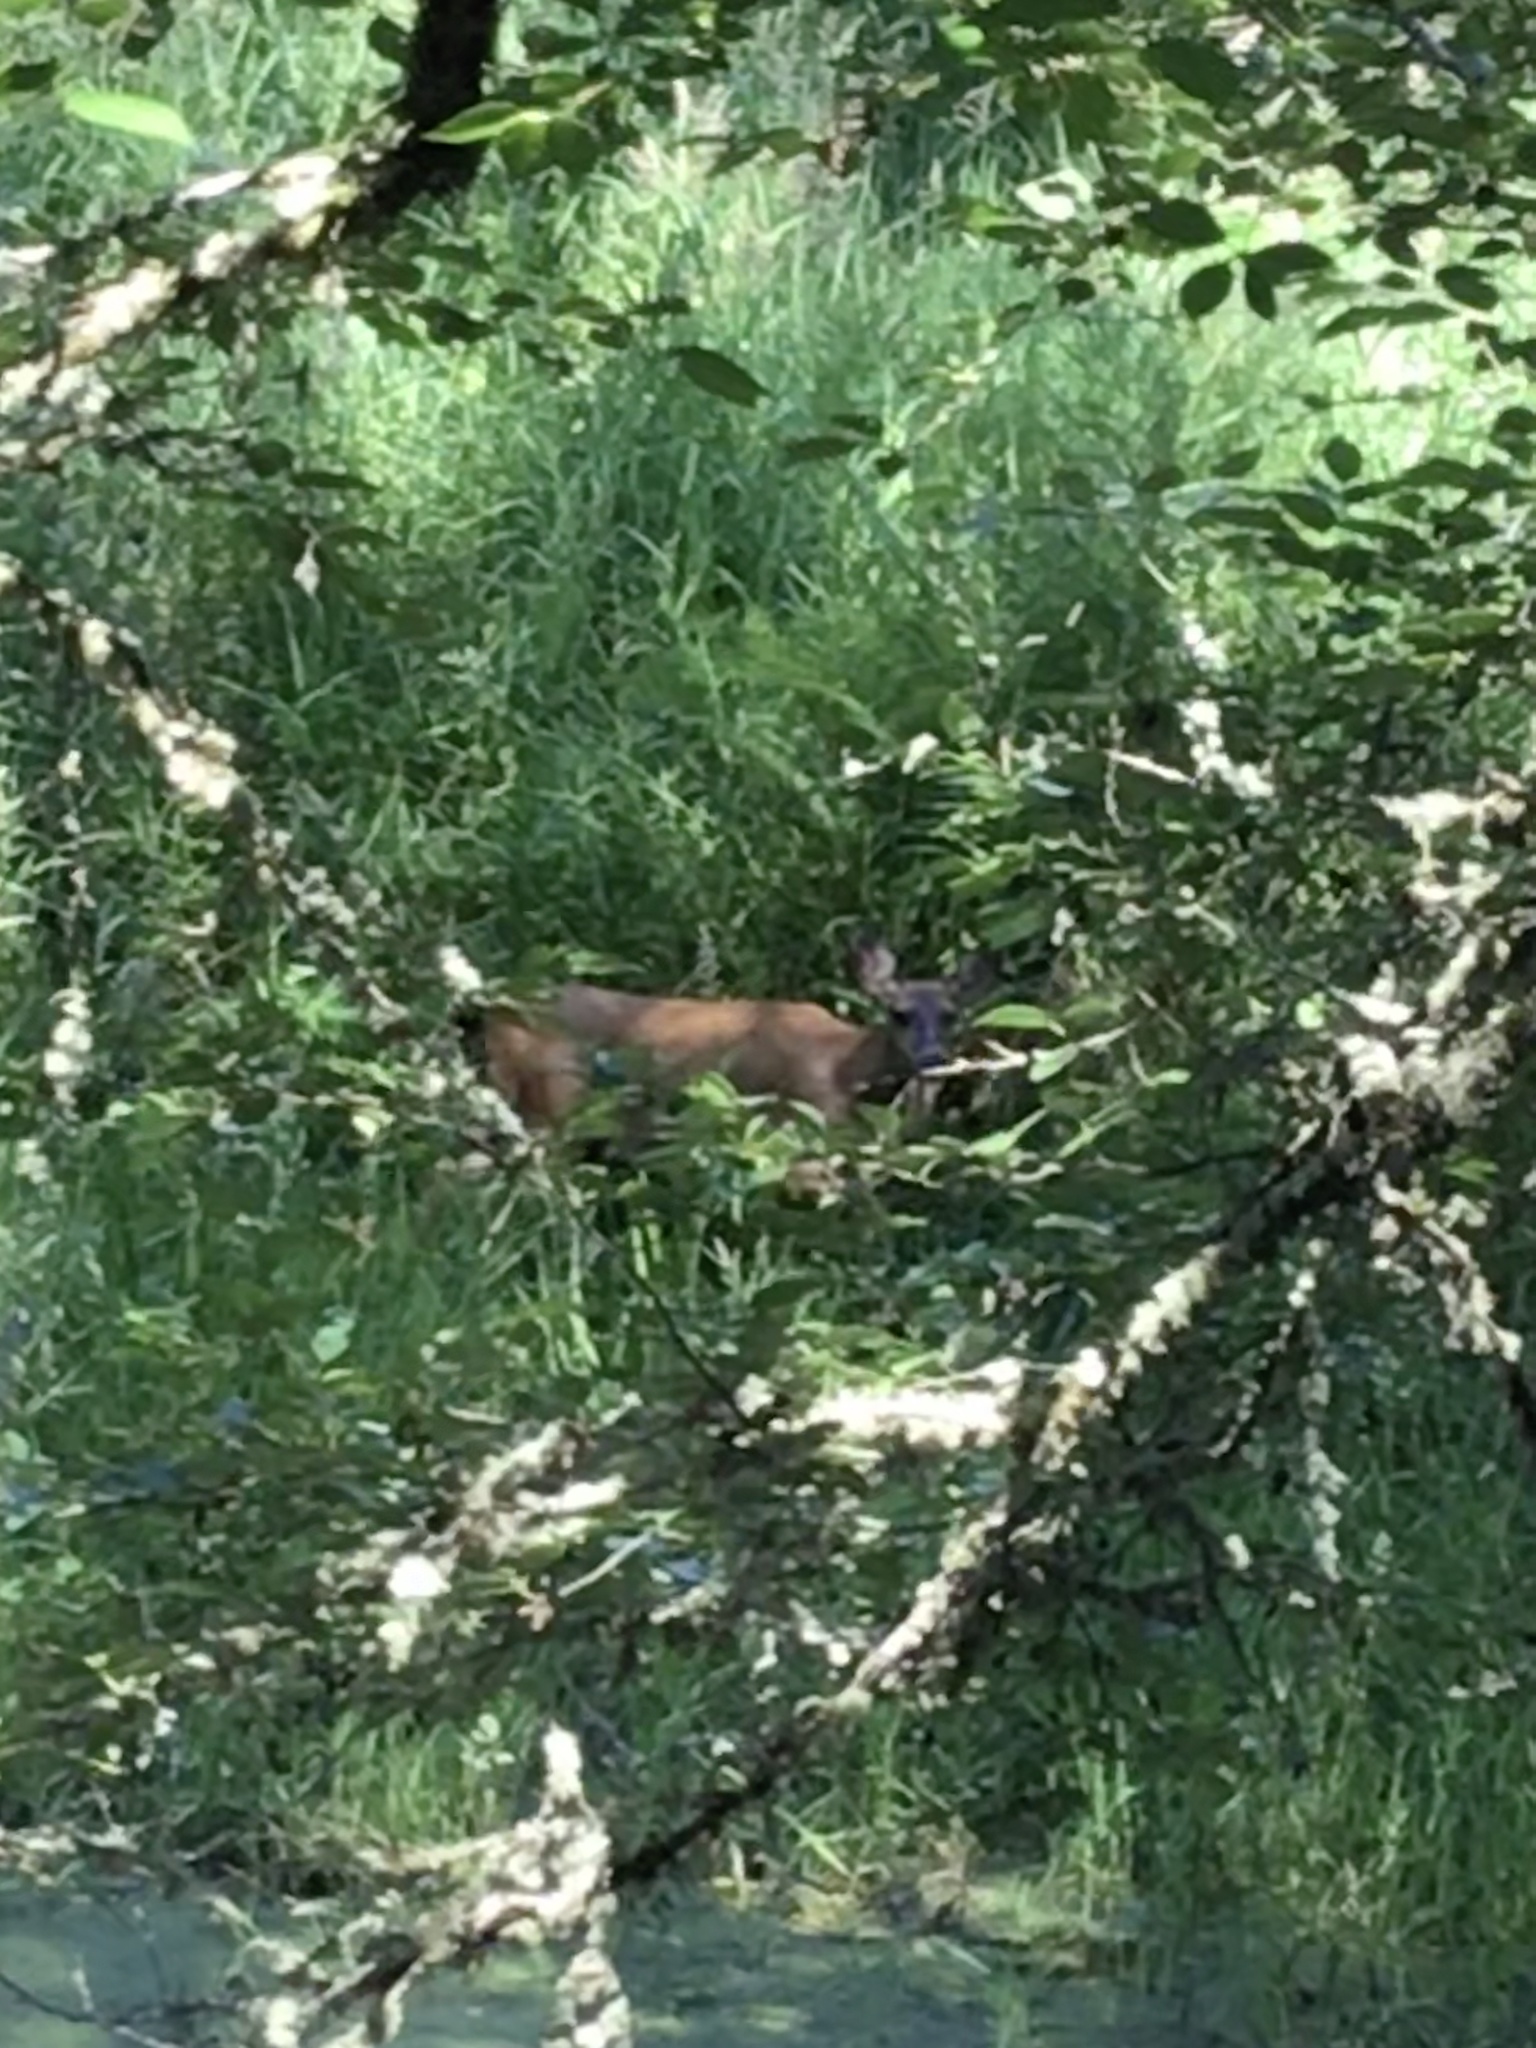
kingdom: Animalia
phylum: Chordata
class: Mammalia
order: Artiodactyla
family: Cervidae
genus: Odocoileus
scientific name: Odocoileus hemionus
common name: Mule deer
